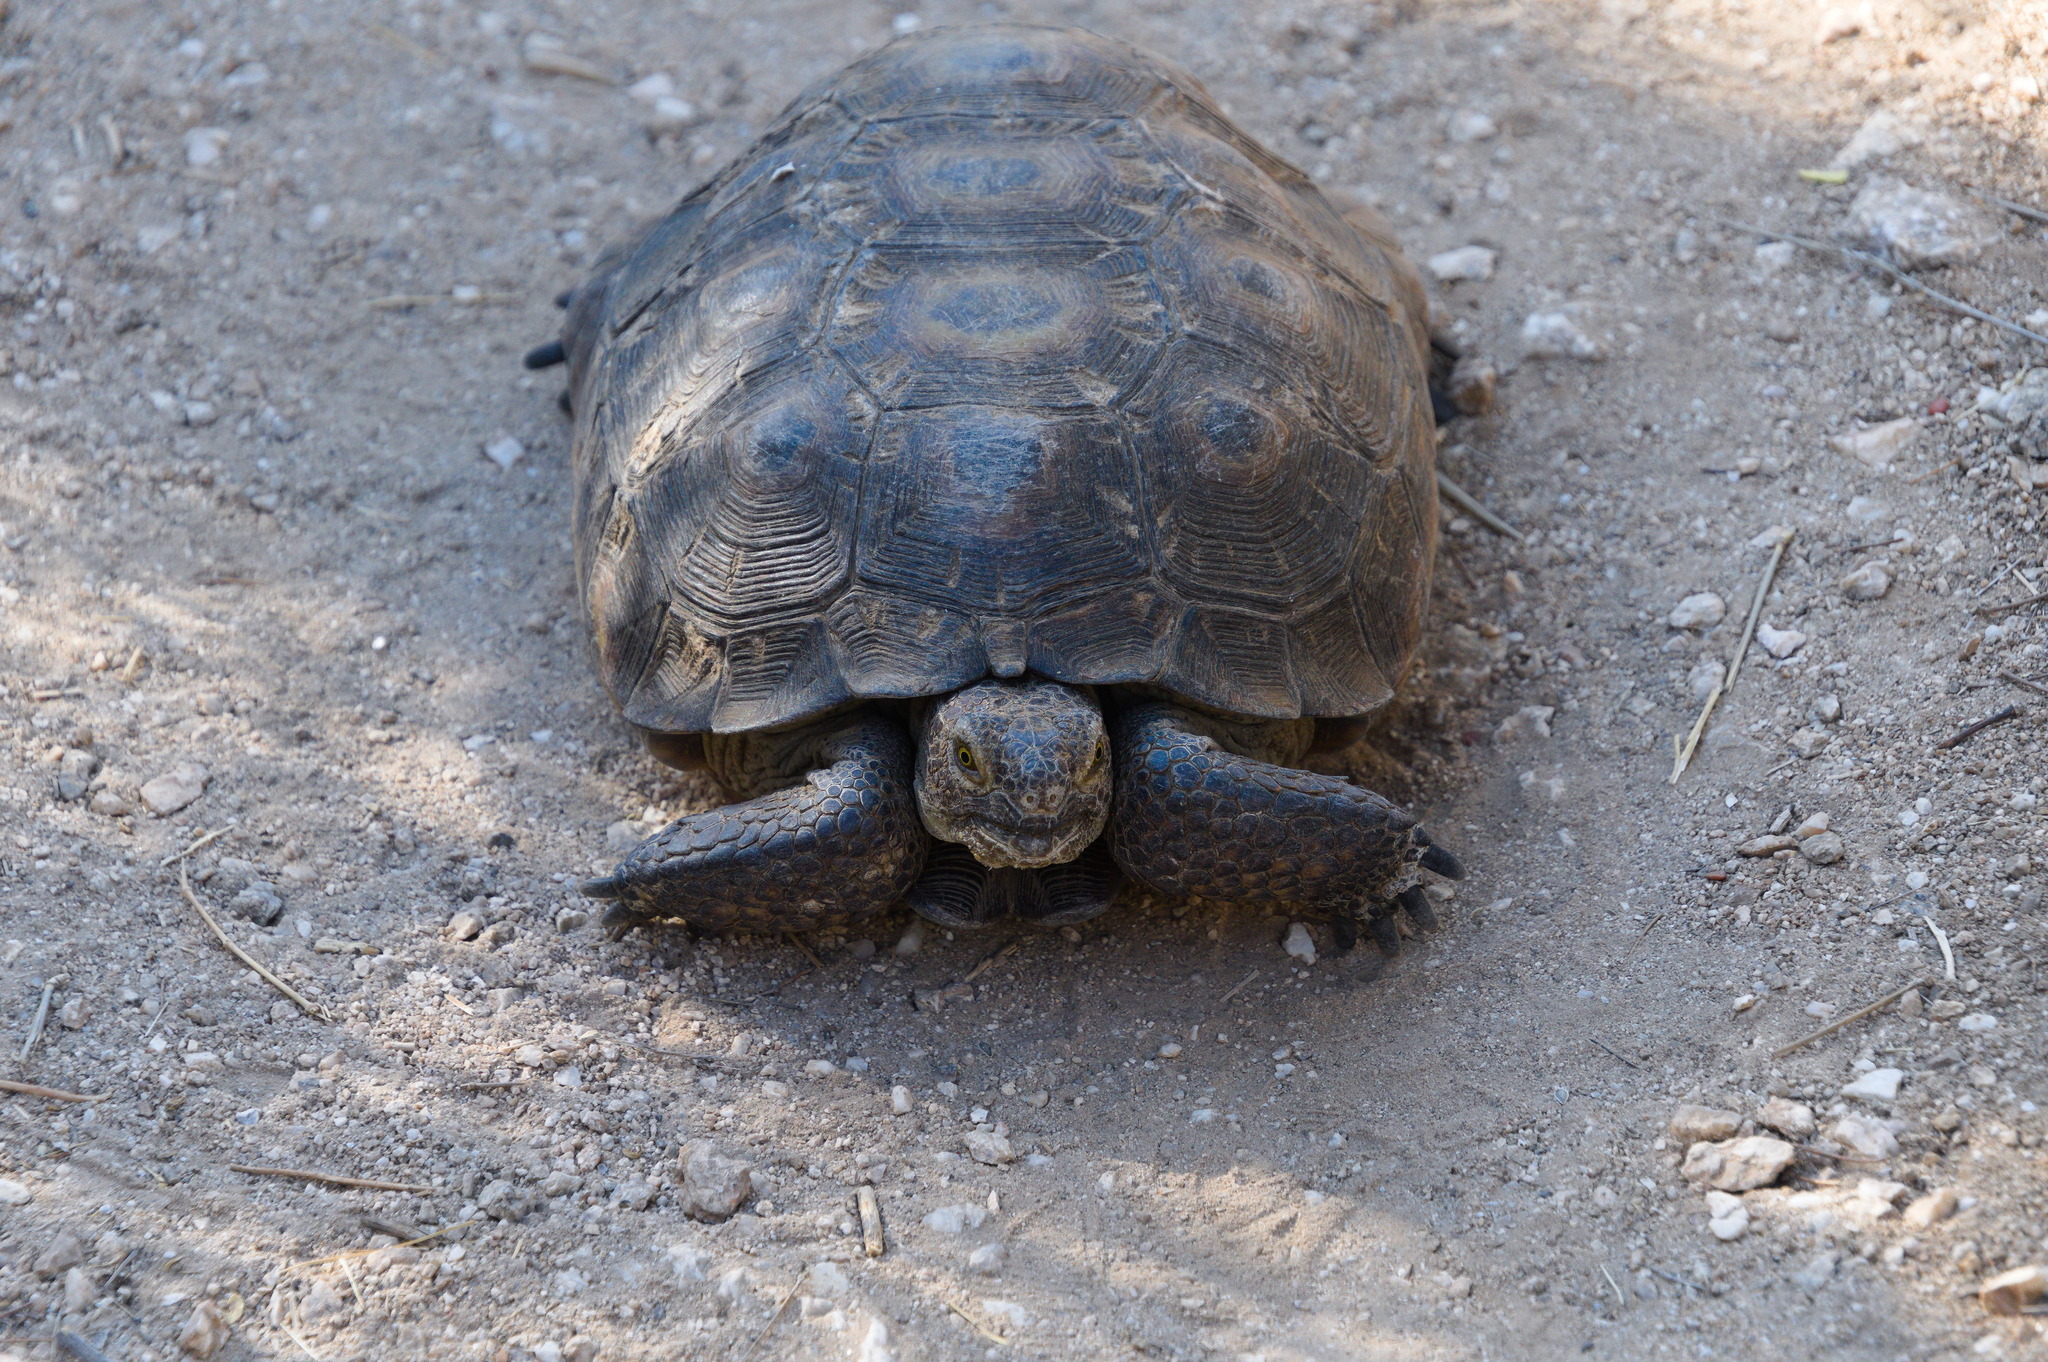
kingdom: Animalia
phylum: Chordata
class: Testudines
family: Testudinidae
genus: Gopherus
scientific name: Gopherus morafkai
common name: Sonoran desert tortoise
